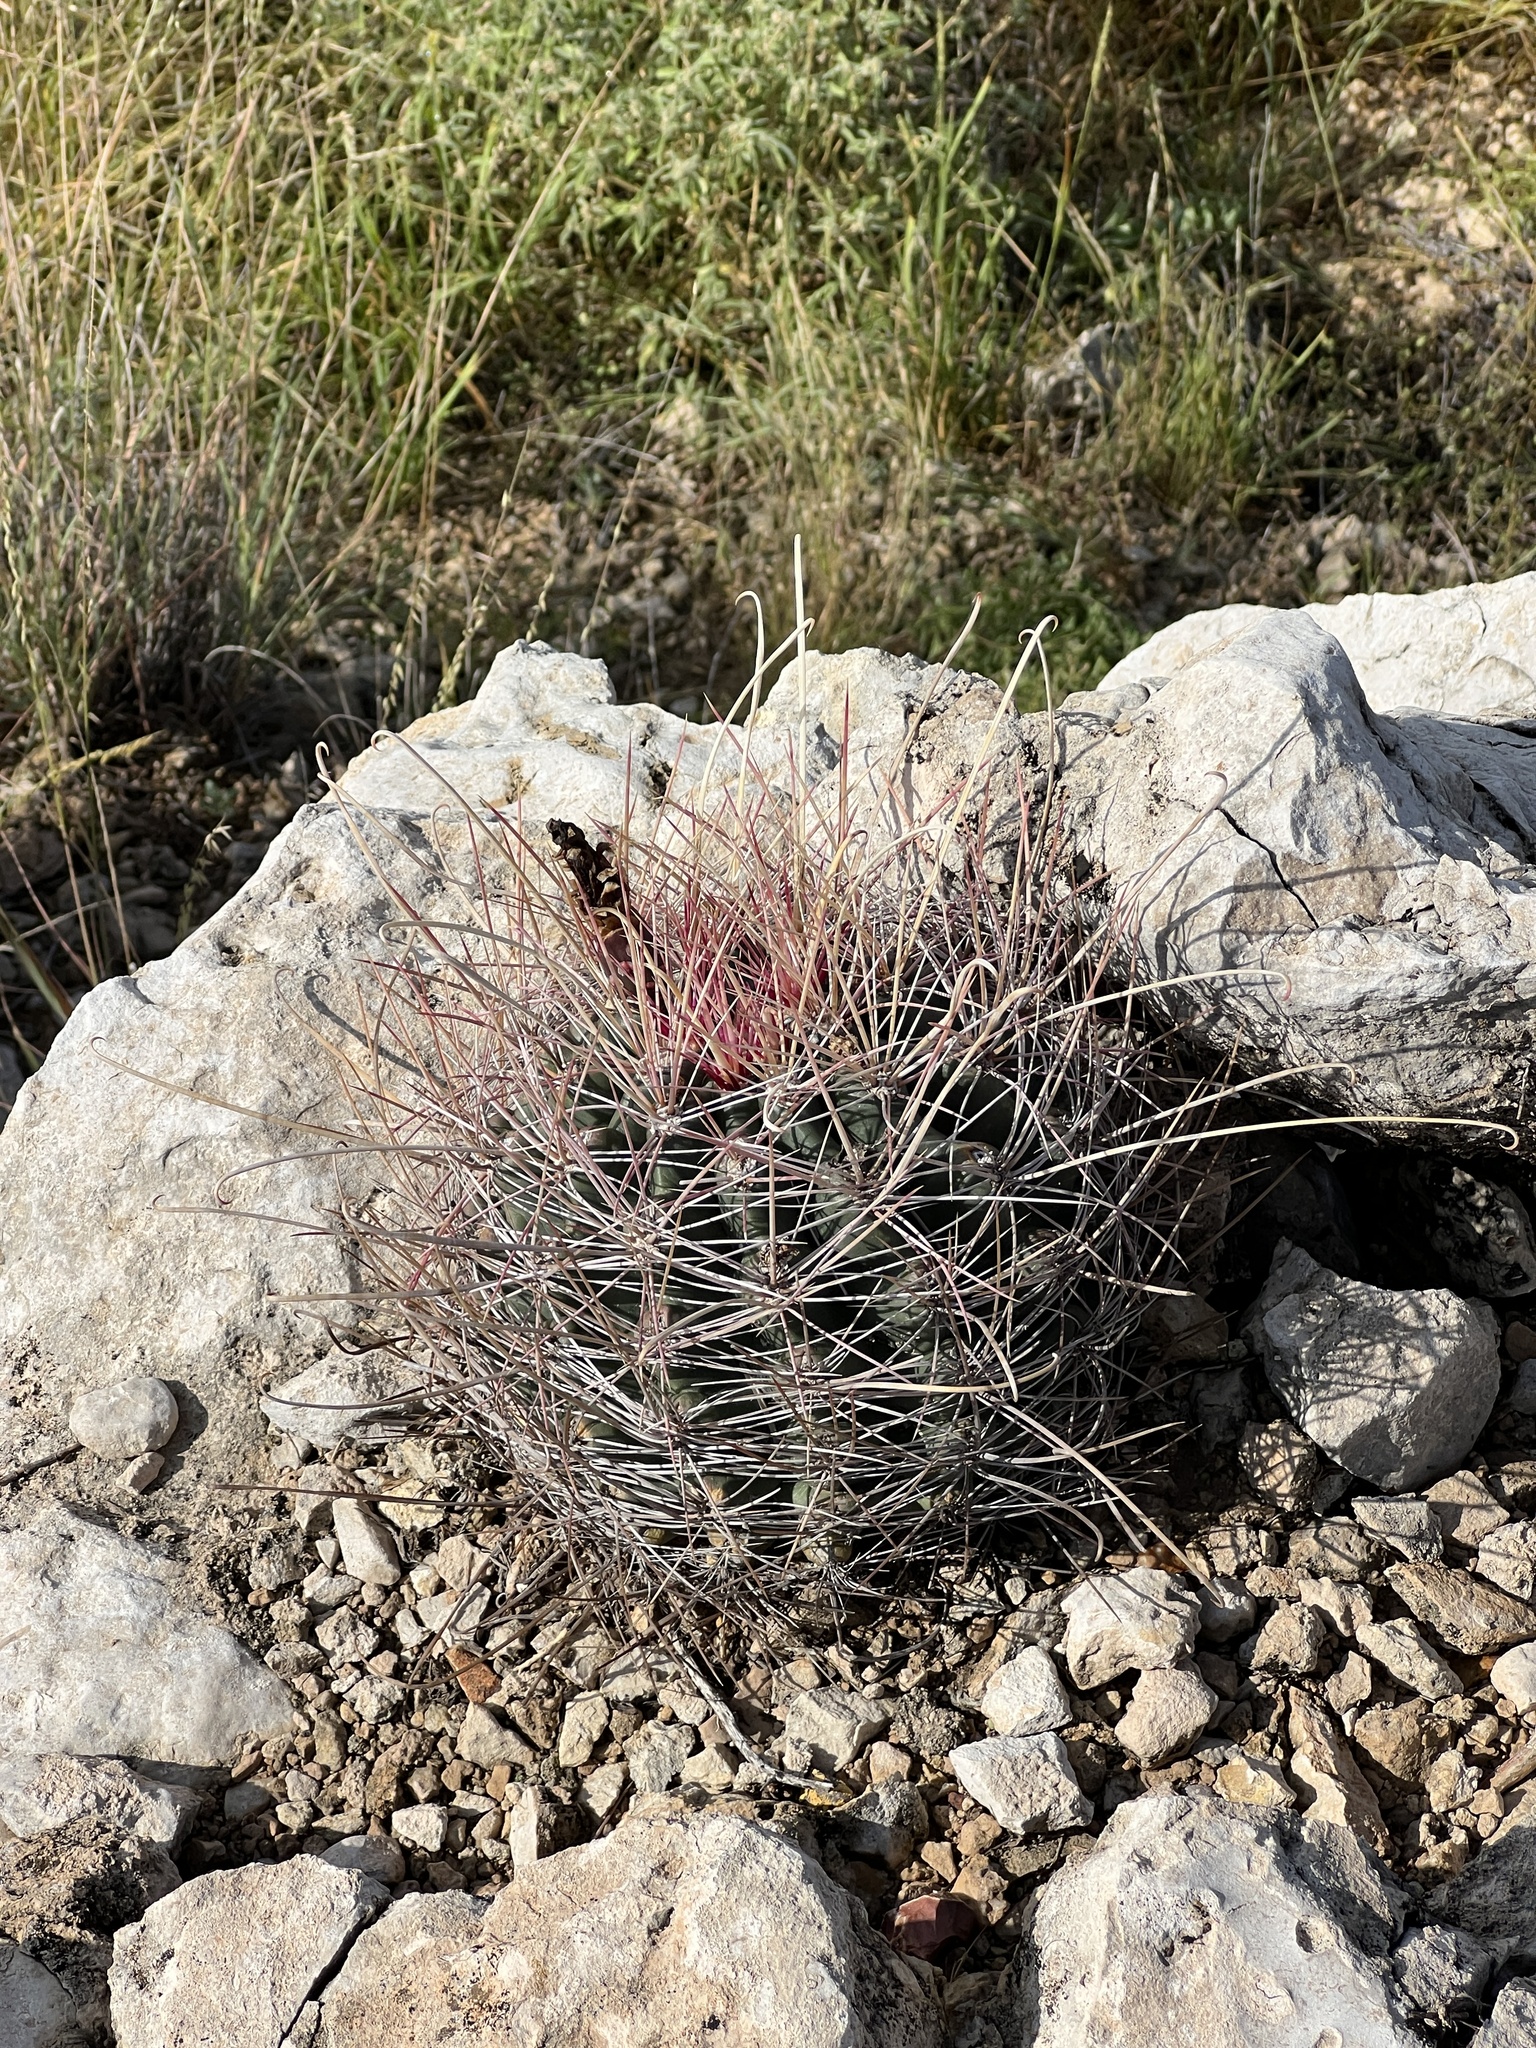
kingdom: Plantae
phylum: Tracheophyta
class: Magnoliopsida
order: Caryophyllales
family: Cactaceae
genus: Bisnaga
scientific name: Bisnaga hamatacantha
